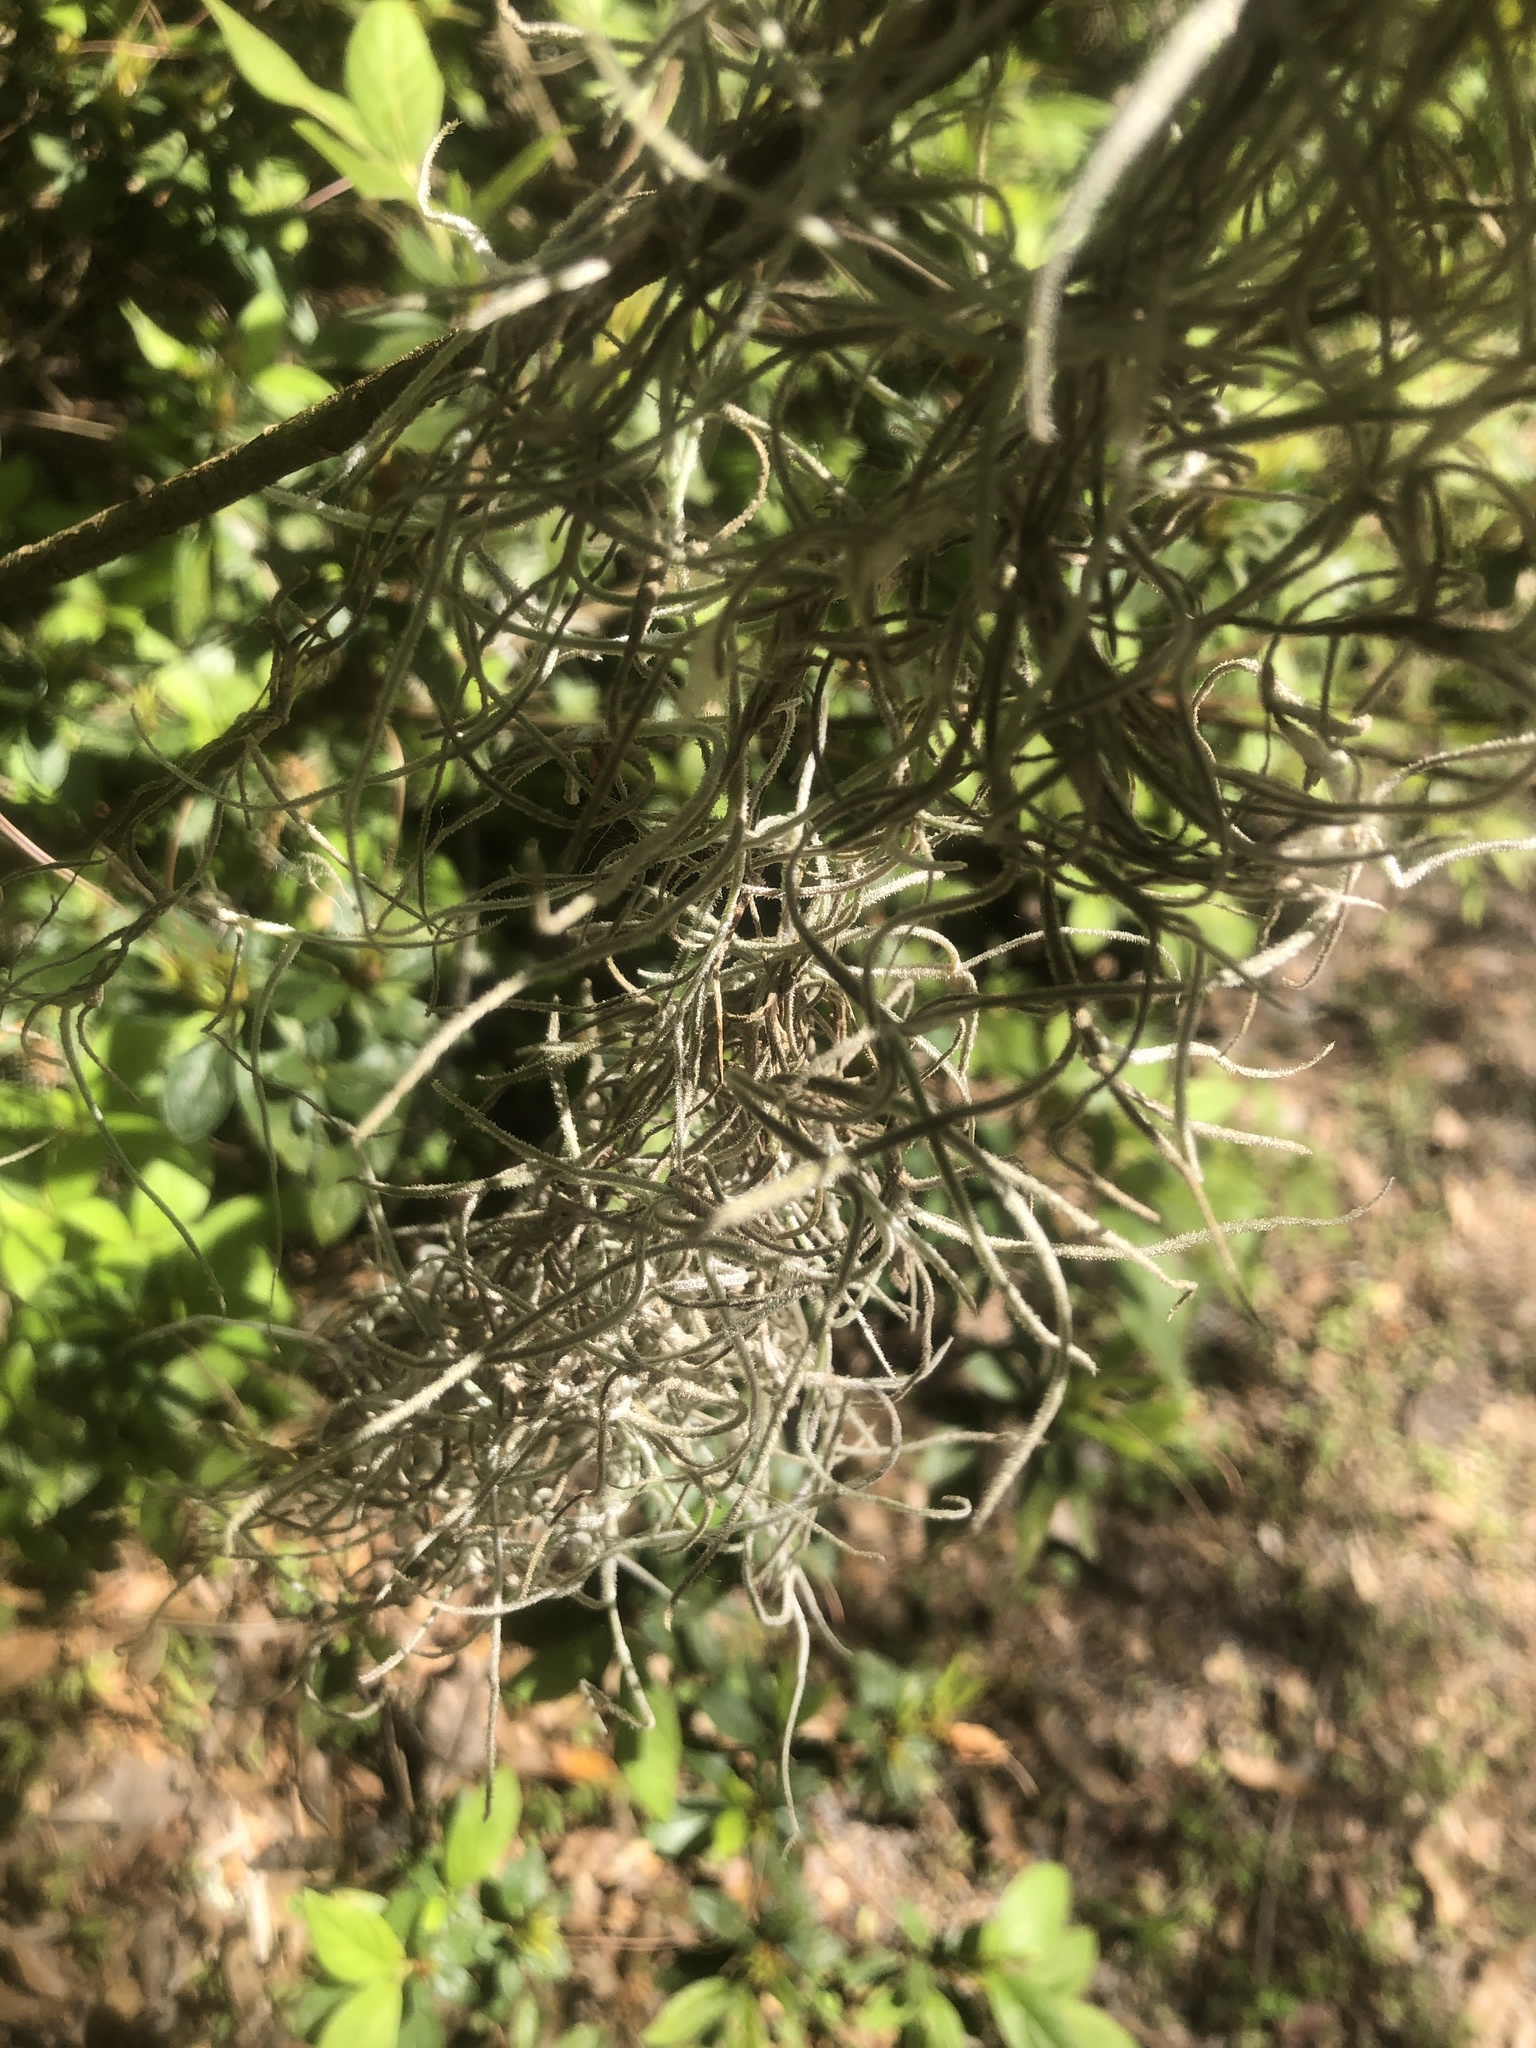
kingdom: Plantae
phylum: Tracheophyta
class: Liliopsida
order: Poales
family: Bromeliaceae
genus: Tillandsia
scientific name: Tillandsia usneoides
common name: Spanish moss
